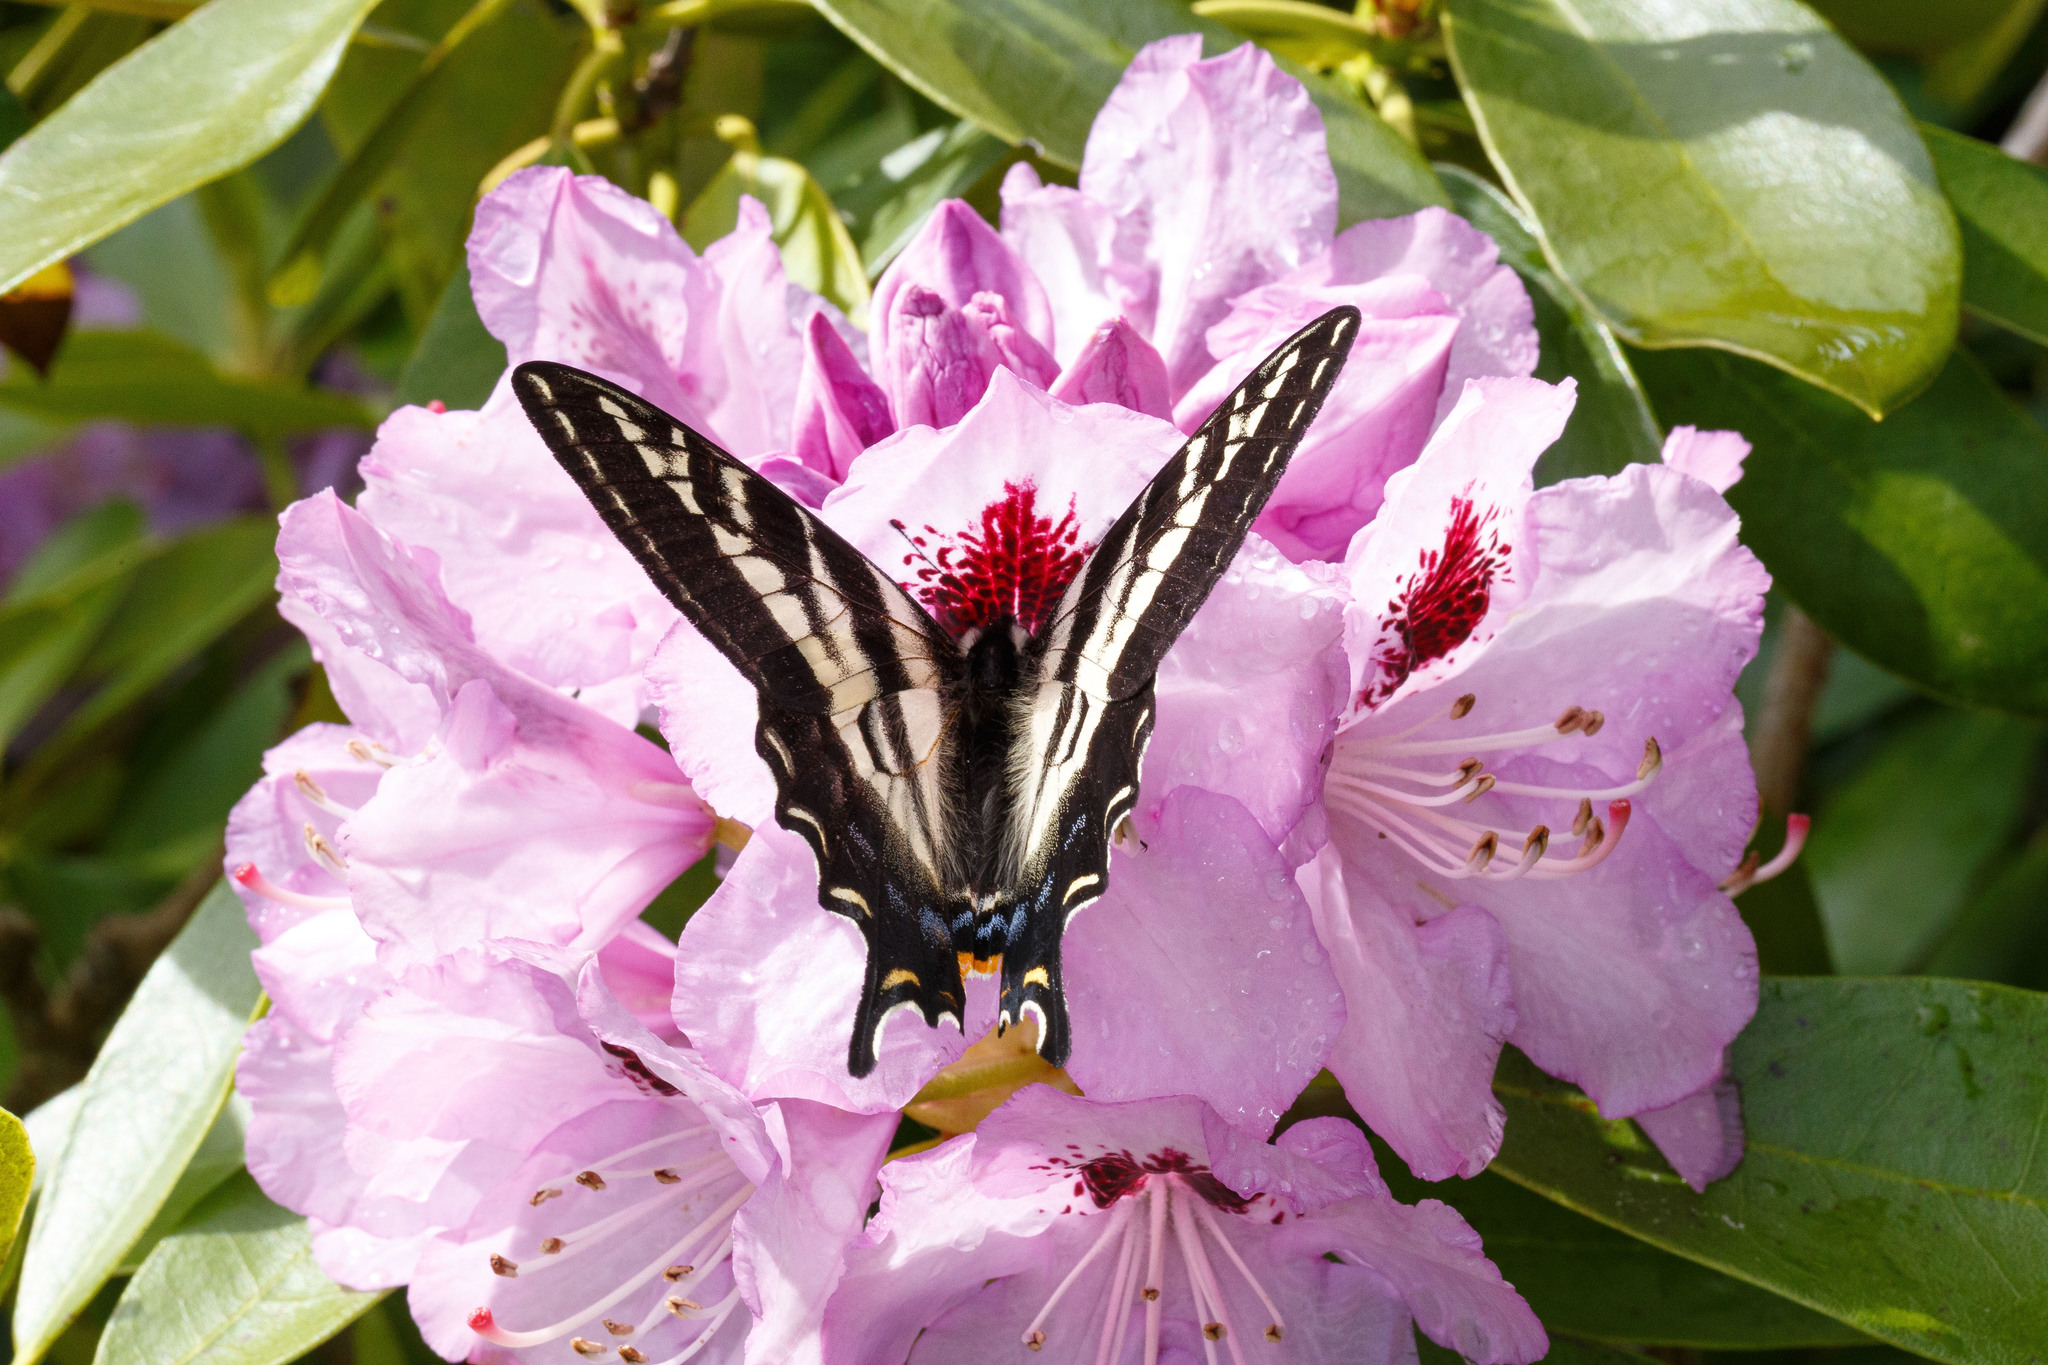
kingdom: Animalia
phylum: Arthropoda
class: Insecta
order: Lepidoptera
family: Papilionidae
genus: Papilio
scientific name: Papilio eurymedon
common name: Pale tiger swallowtail
